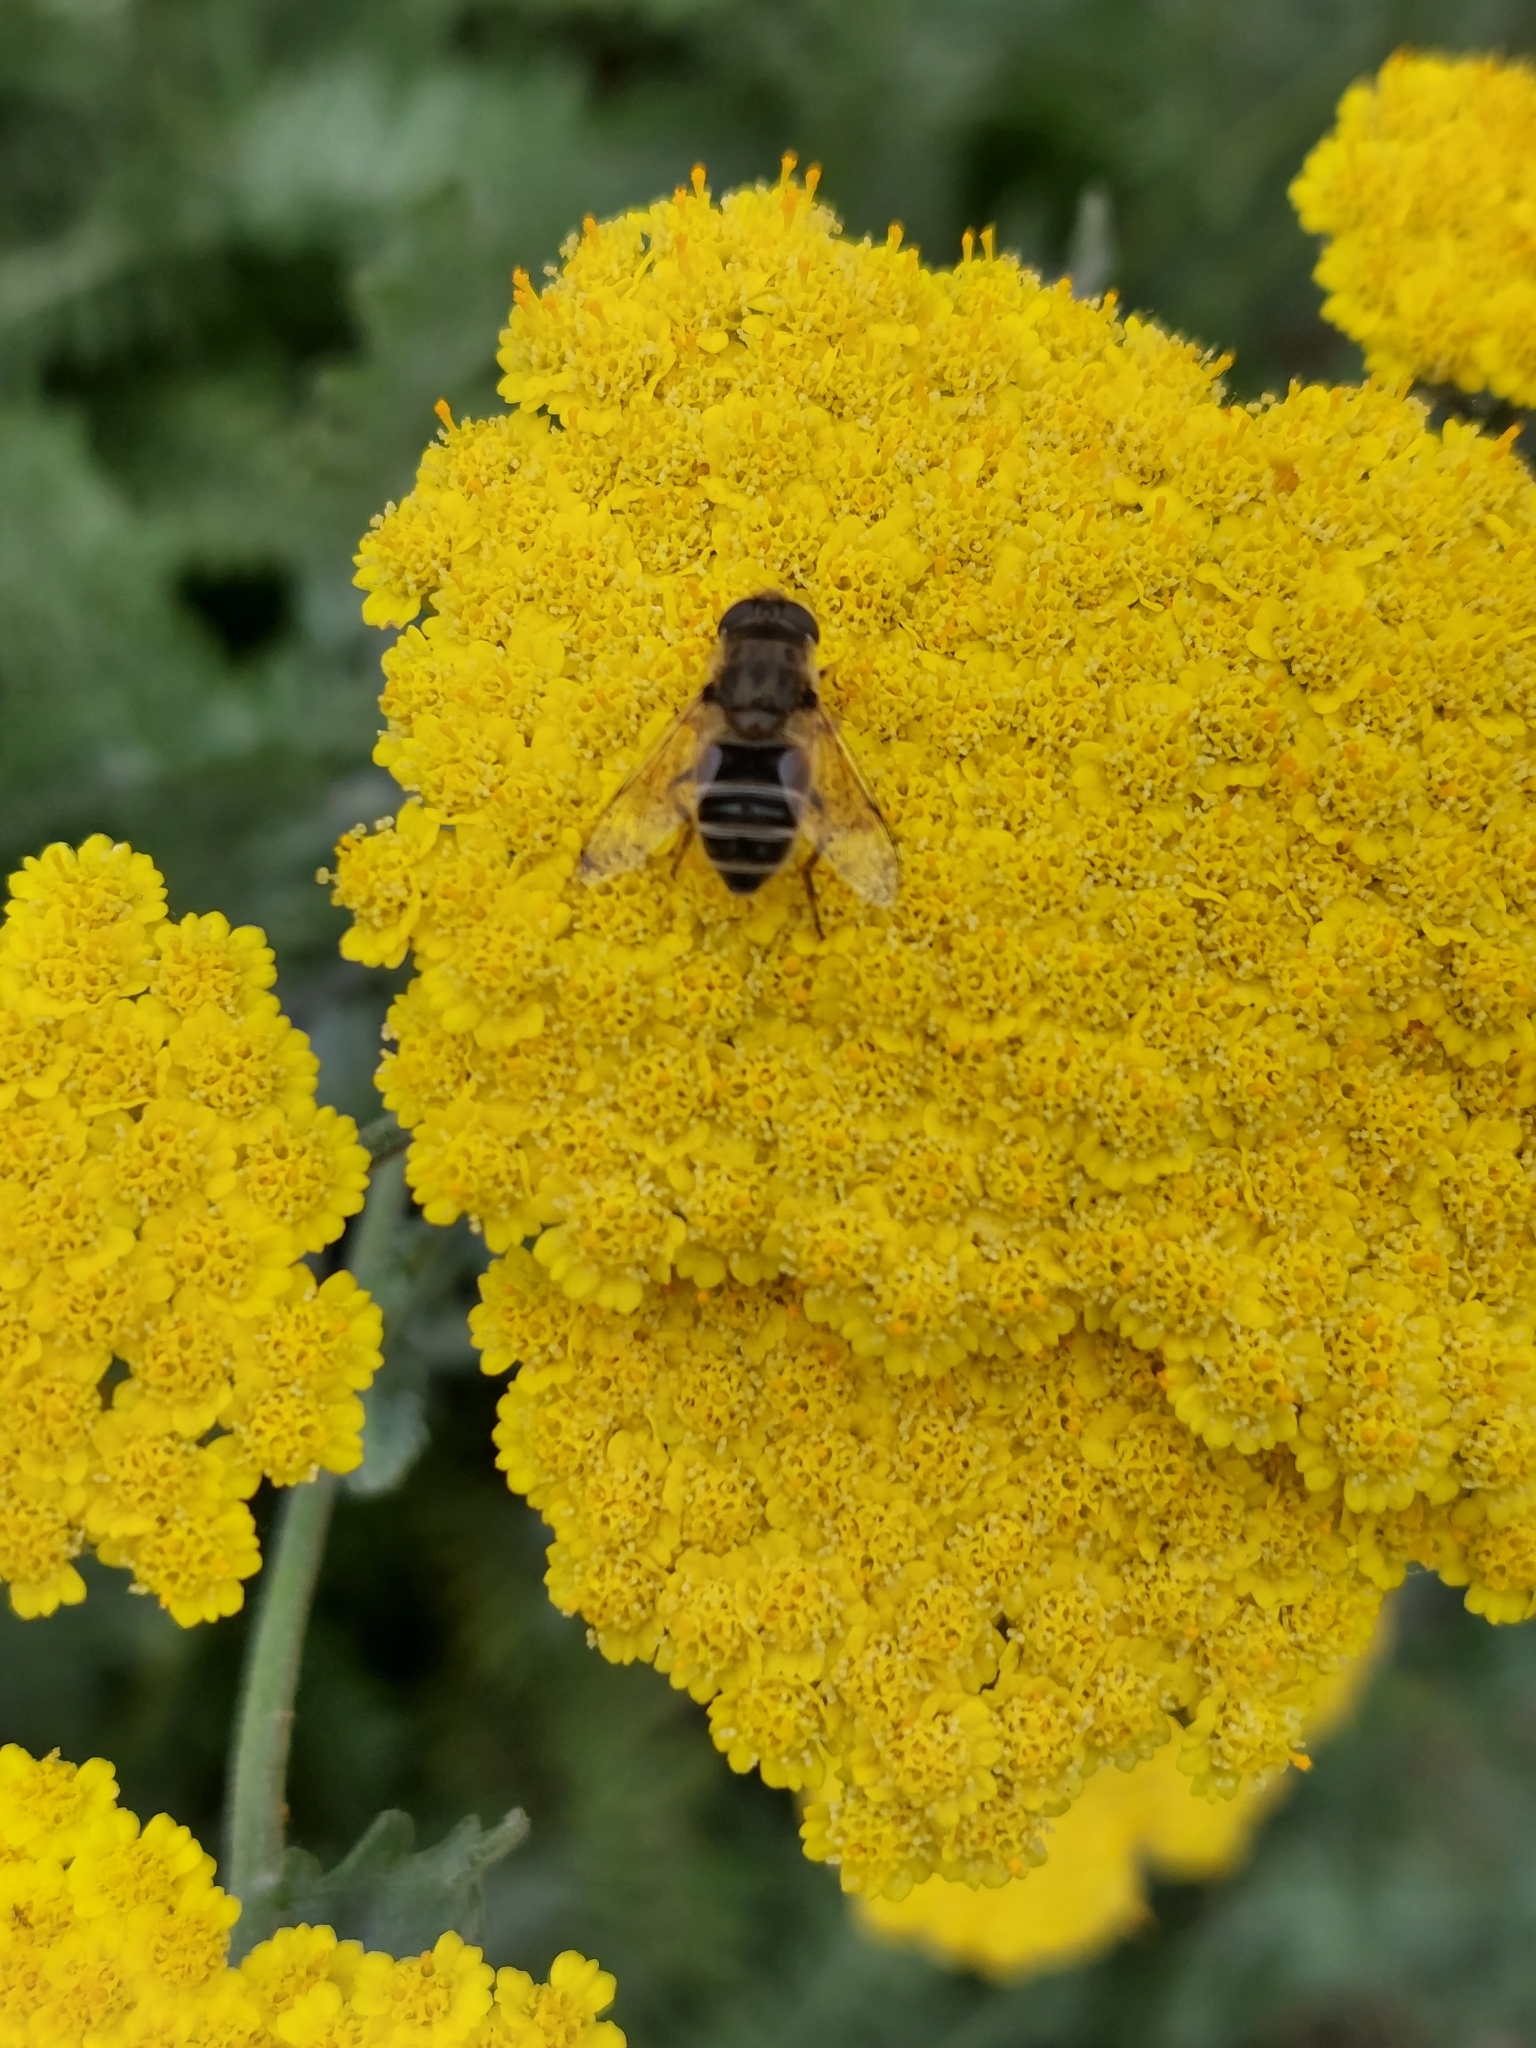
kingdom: Animalia
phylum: Arthropoda
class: Insecta
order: Diptera
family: Syrphidae
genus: Eristalis
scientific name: Eristalis arbustorum
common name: Hover fly
